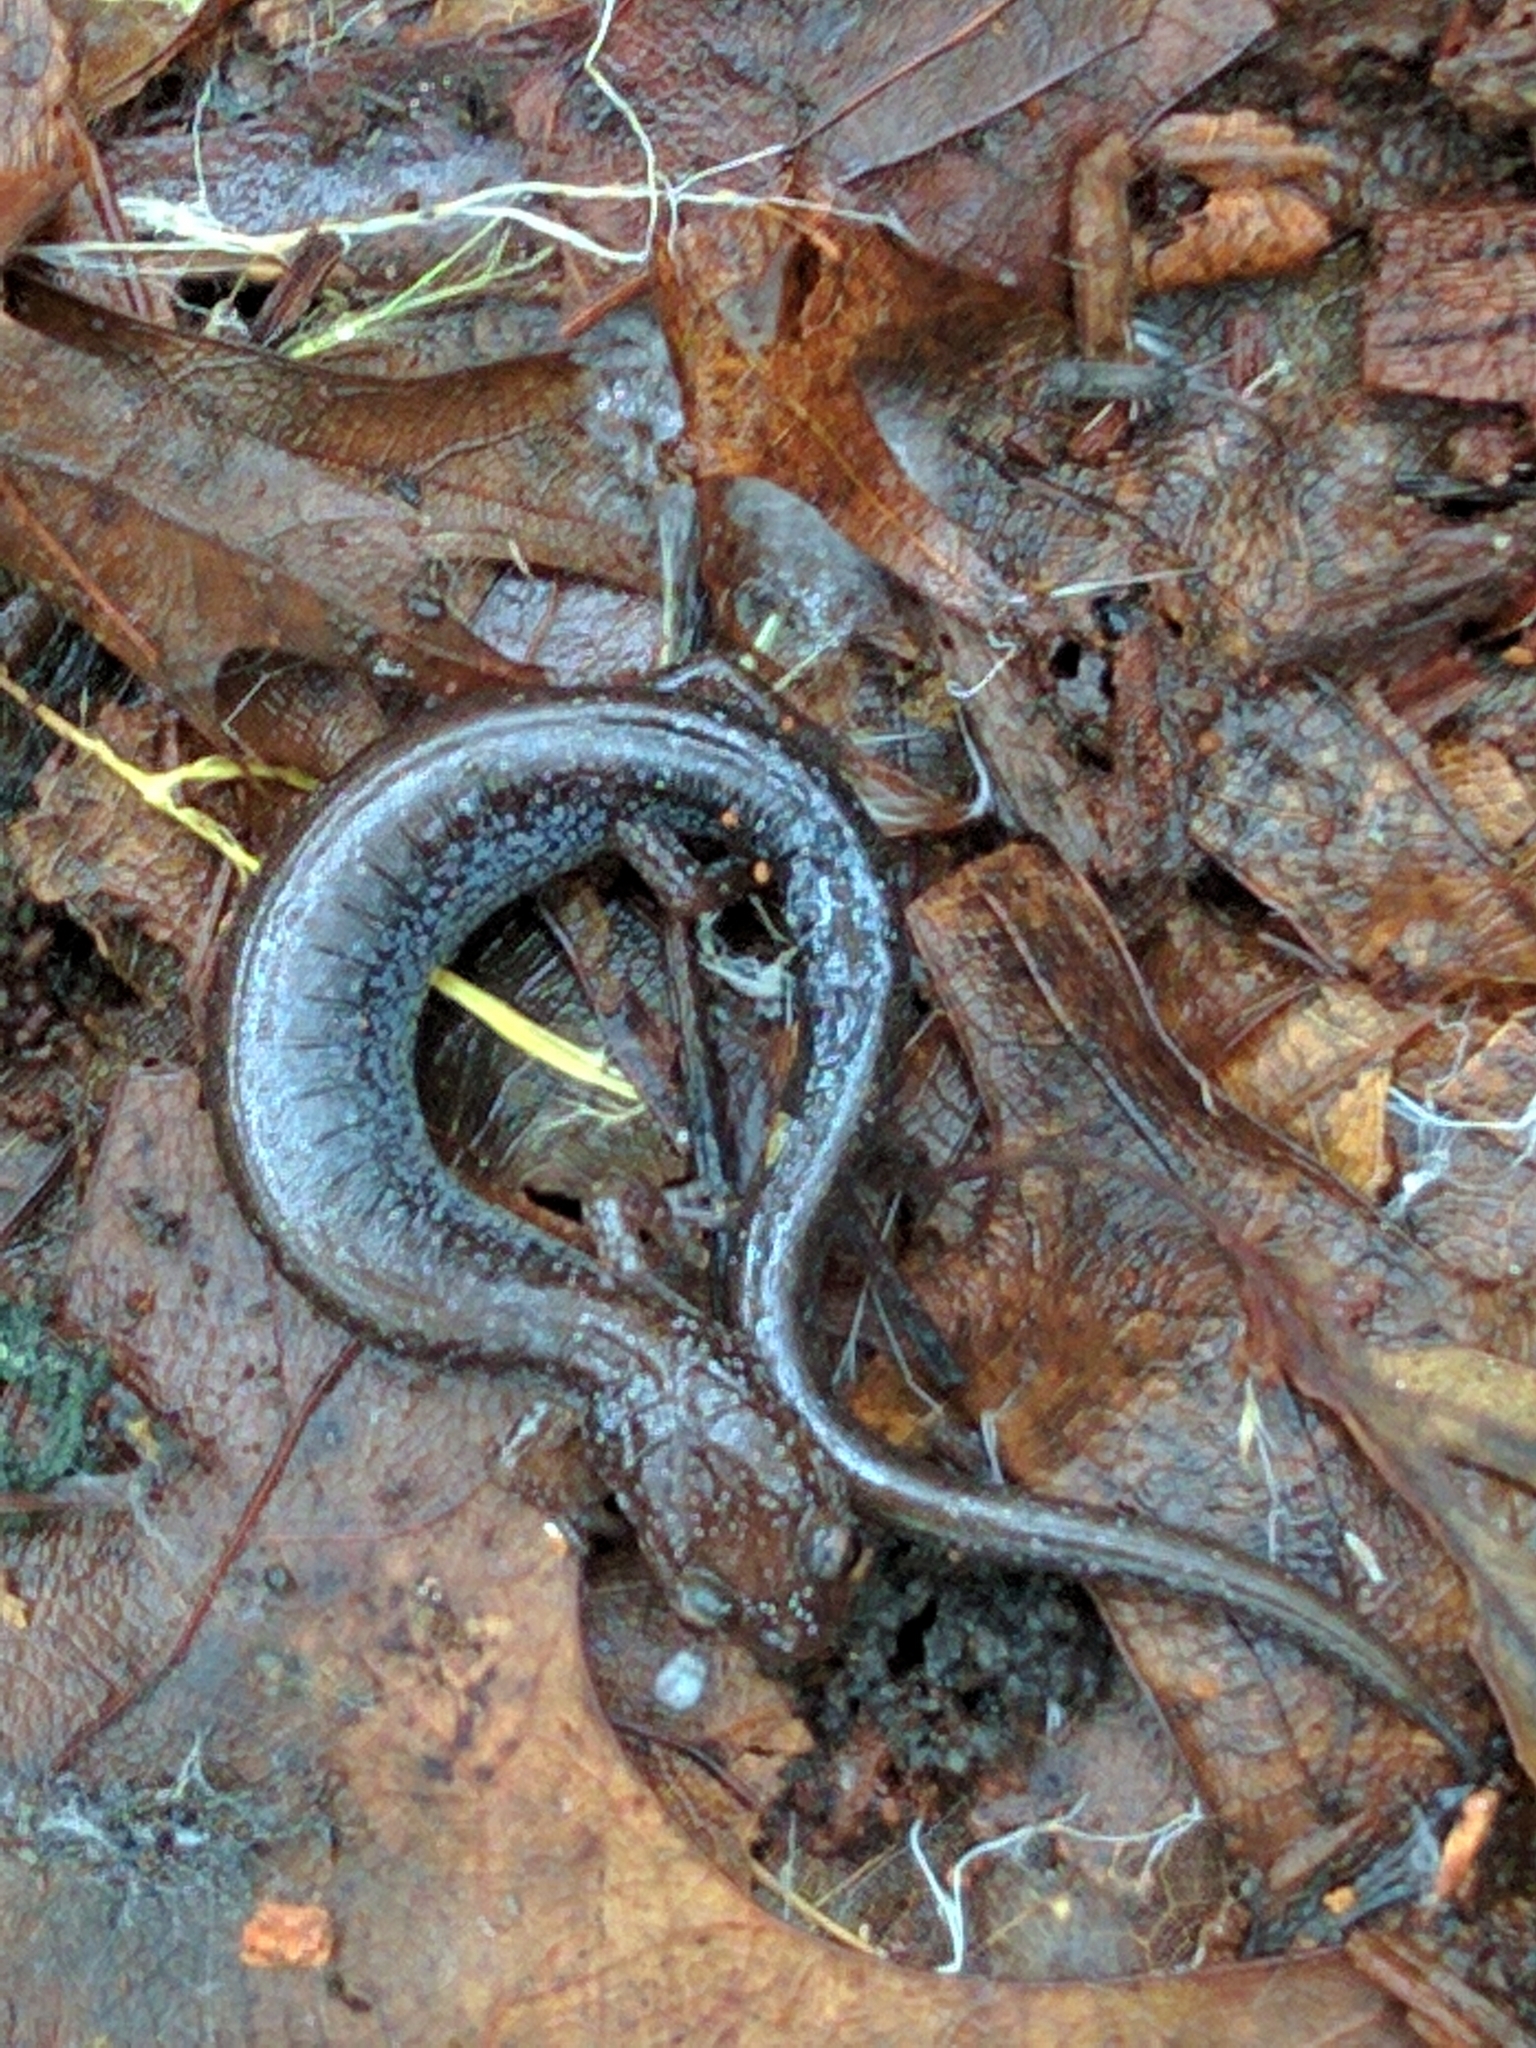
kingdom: Animalia
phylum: Chordata
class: Amphibia
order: Caudata
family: Plethodontidae
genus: Plethodon
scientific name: Plethodon cinereus
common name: Redback salamander
